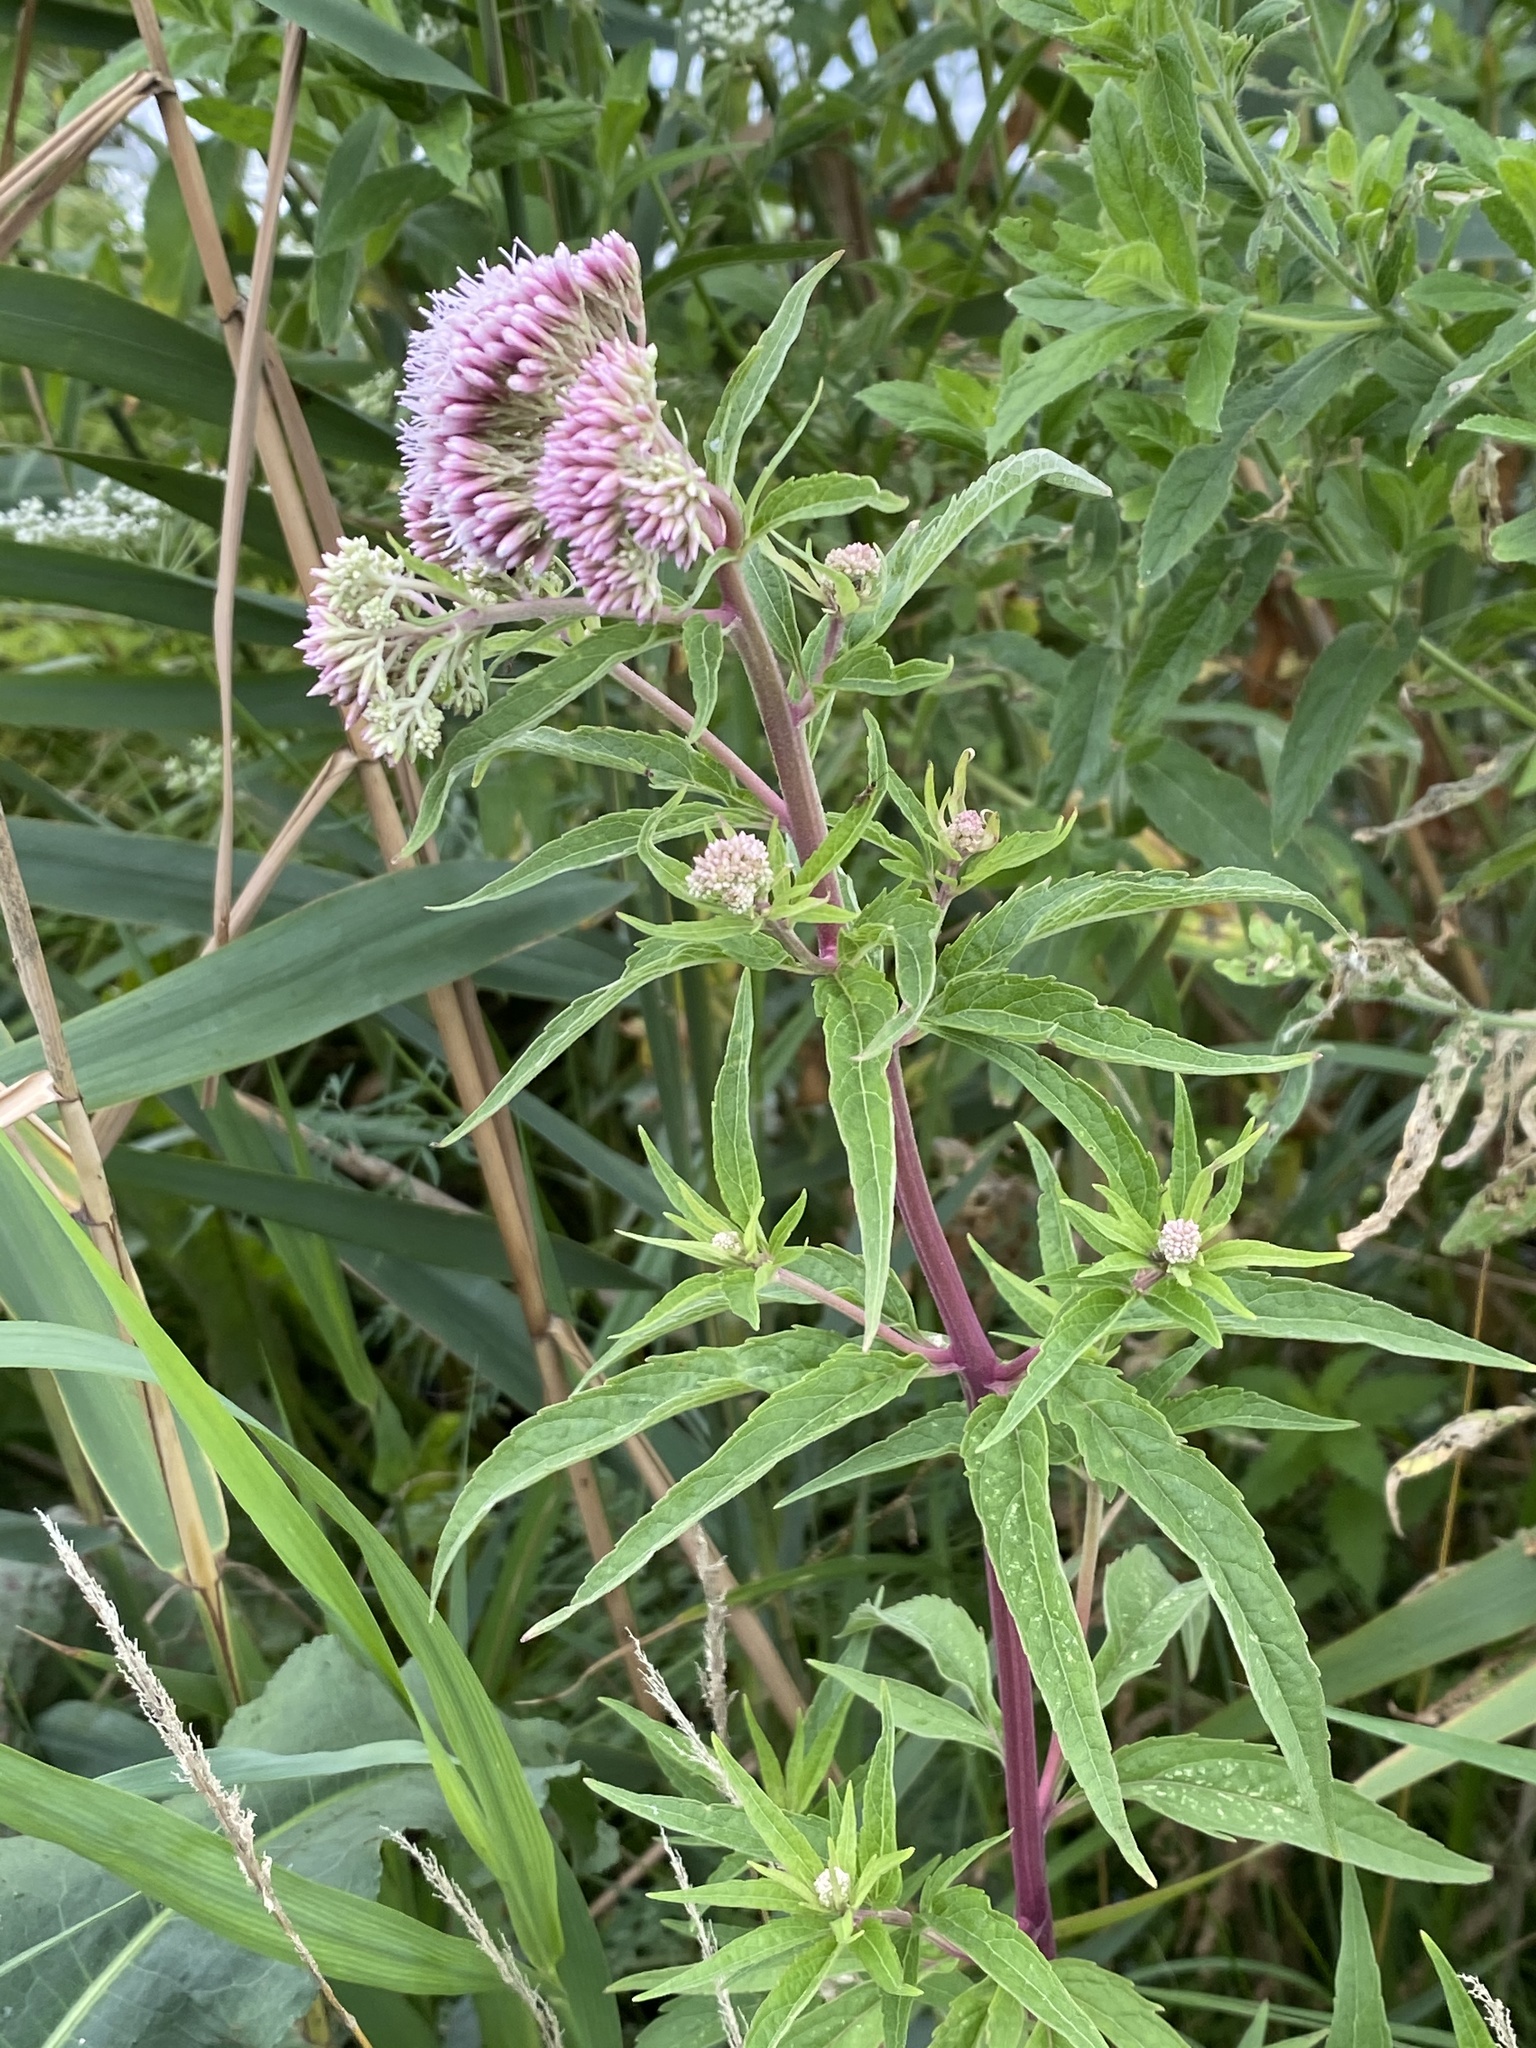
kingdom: Plantae
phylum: Tracheophyta
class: Magnoliopsida
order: Asterales
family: Asteraceae
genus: Eupatorium
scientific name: Eupatorium cannabinum
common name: Hemp-agrimony
